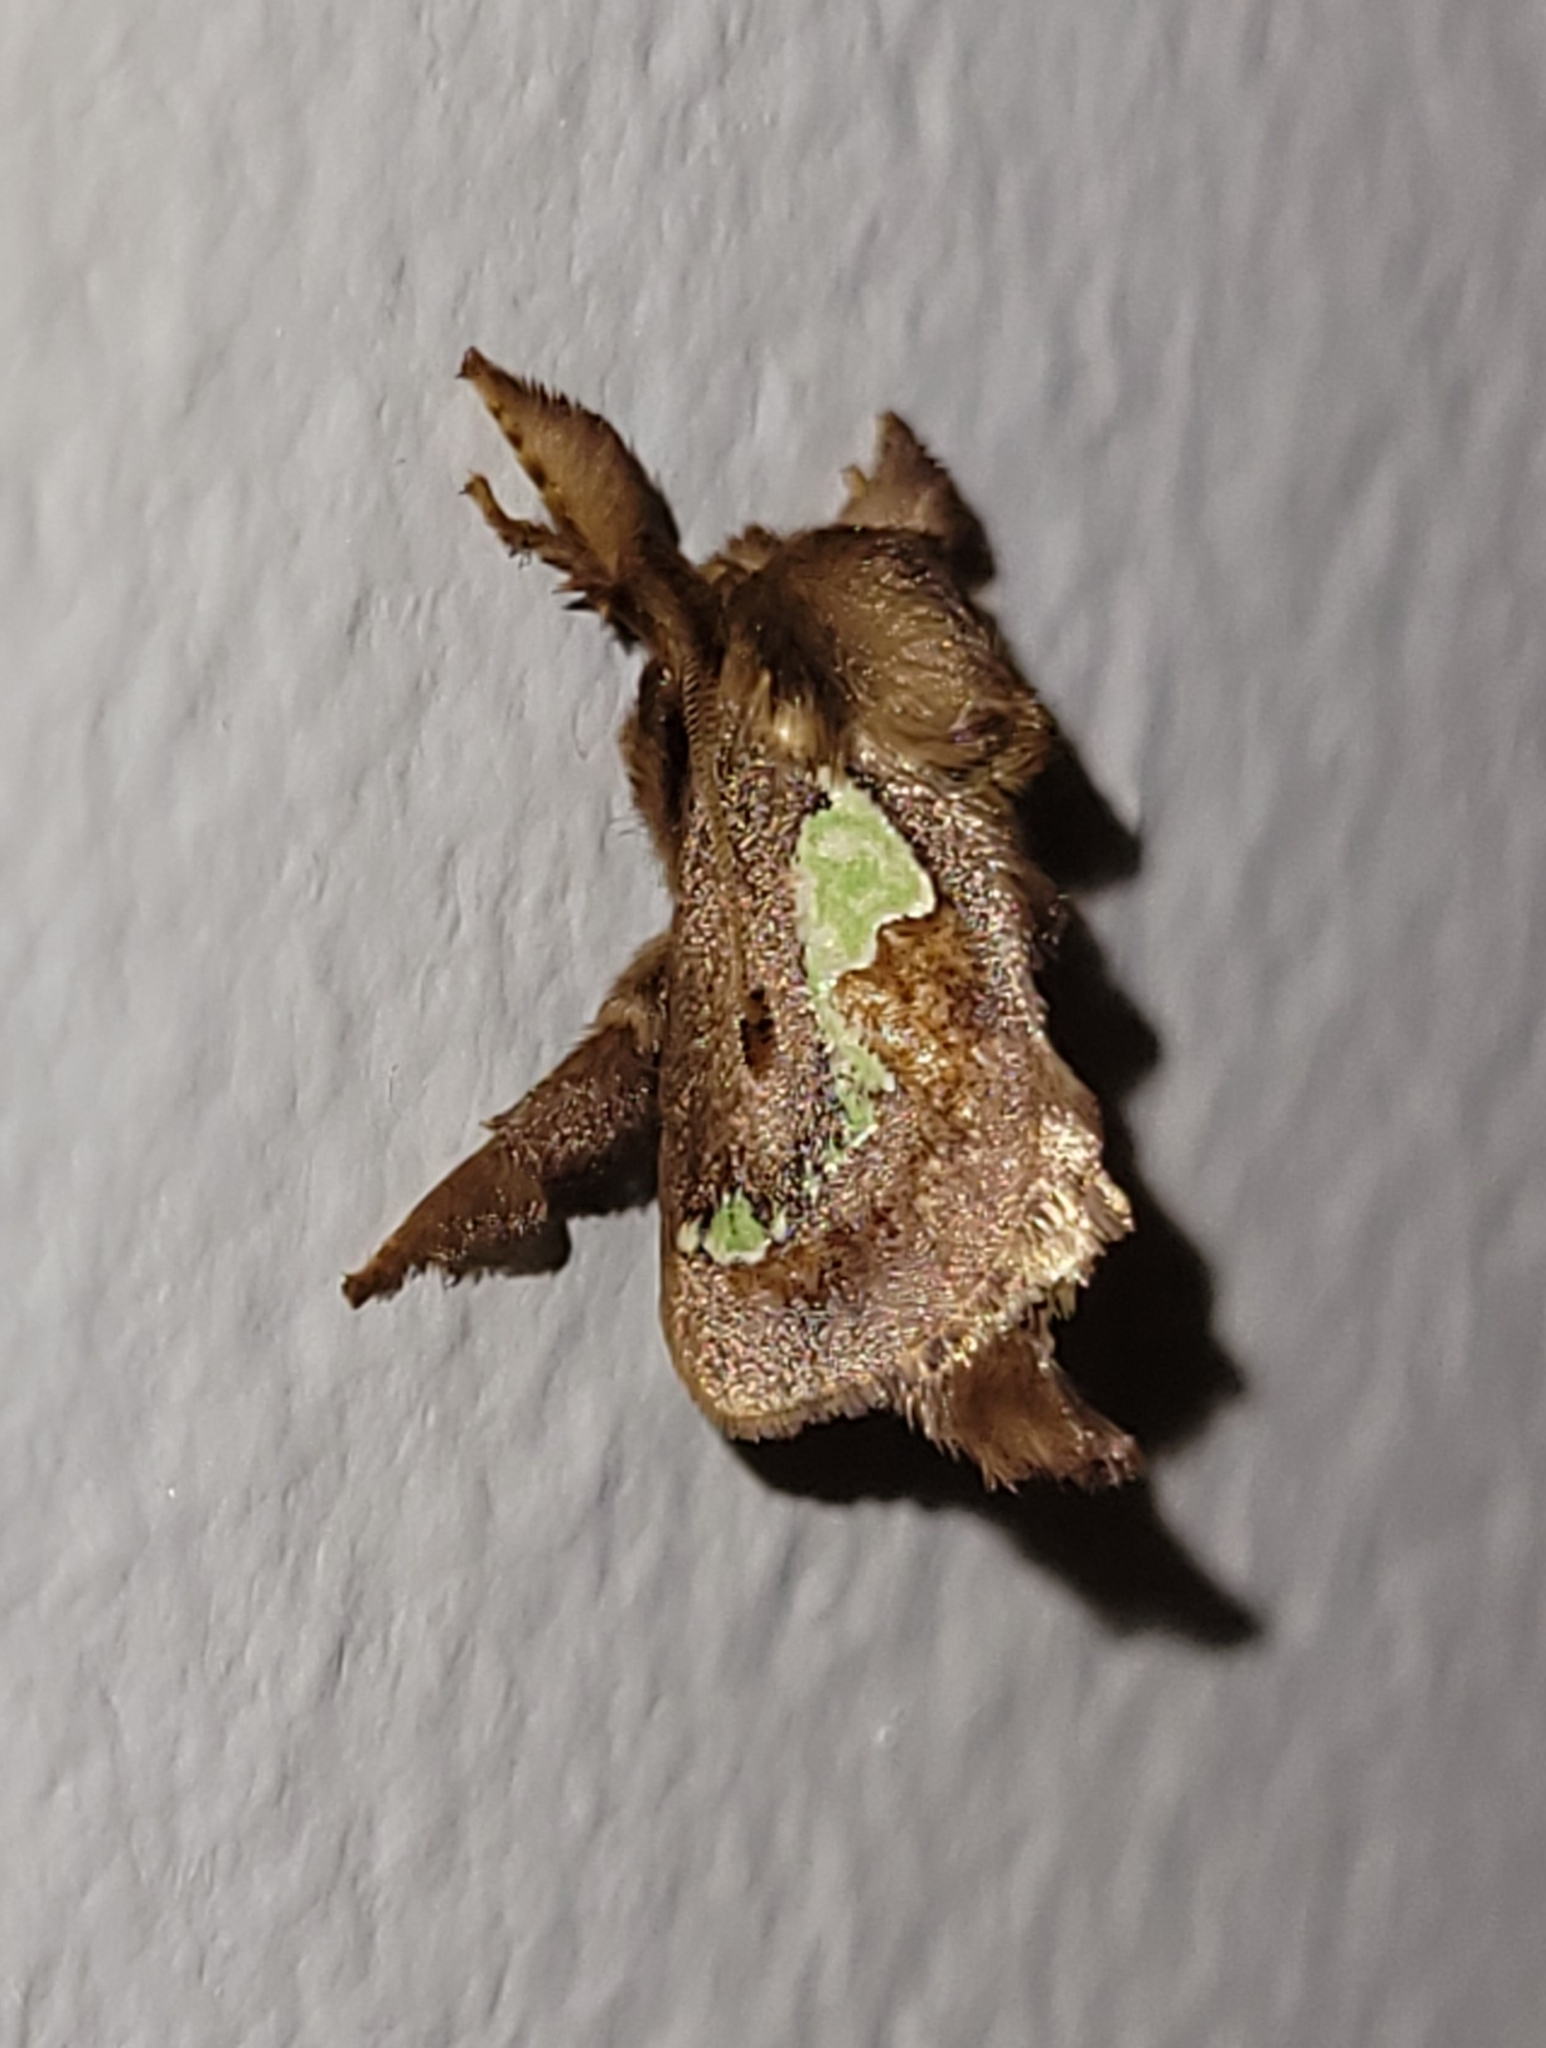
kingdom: Animalia
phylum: Arthropoda
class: Insecta
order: Lepidoptera
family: Limacodidae
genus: Euclea
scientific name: Euclea delphinii
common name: Spiny oak-slug moth
